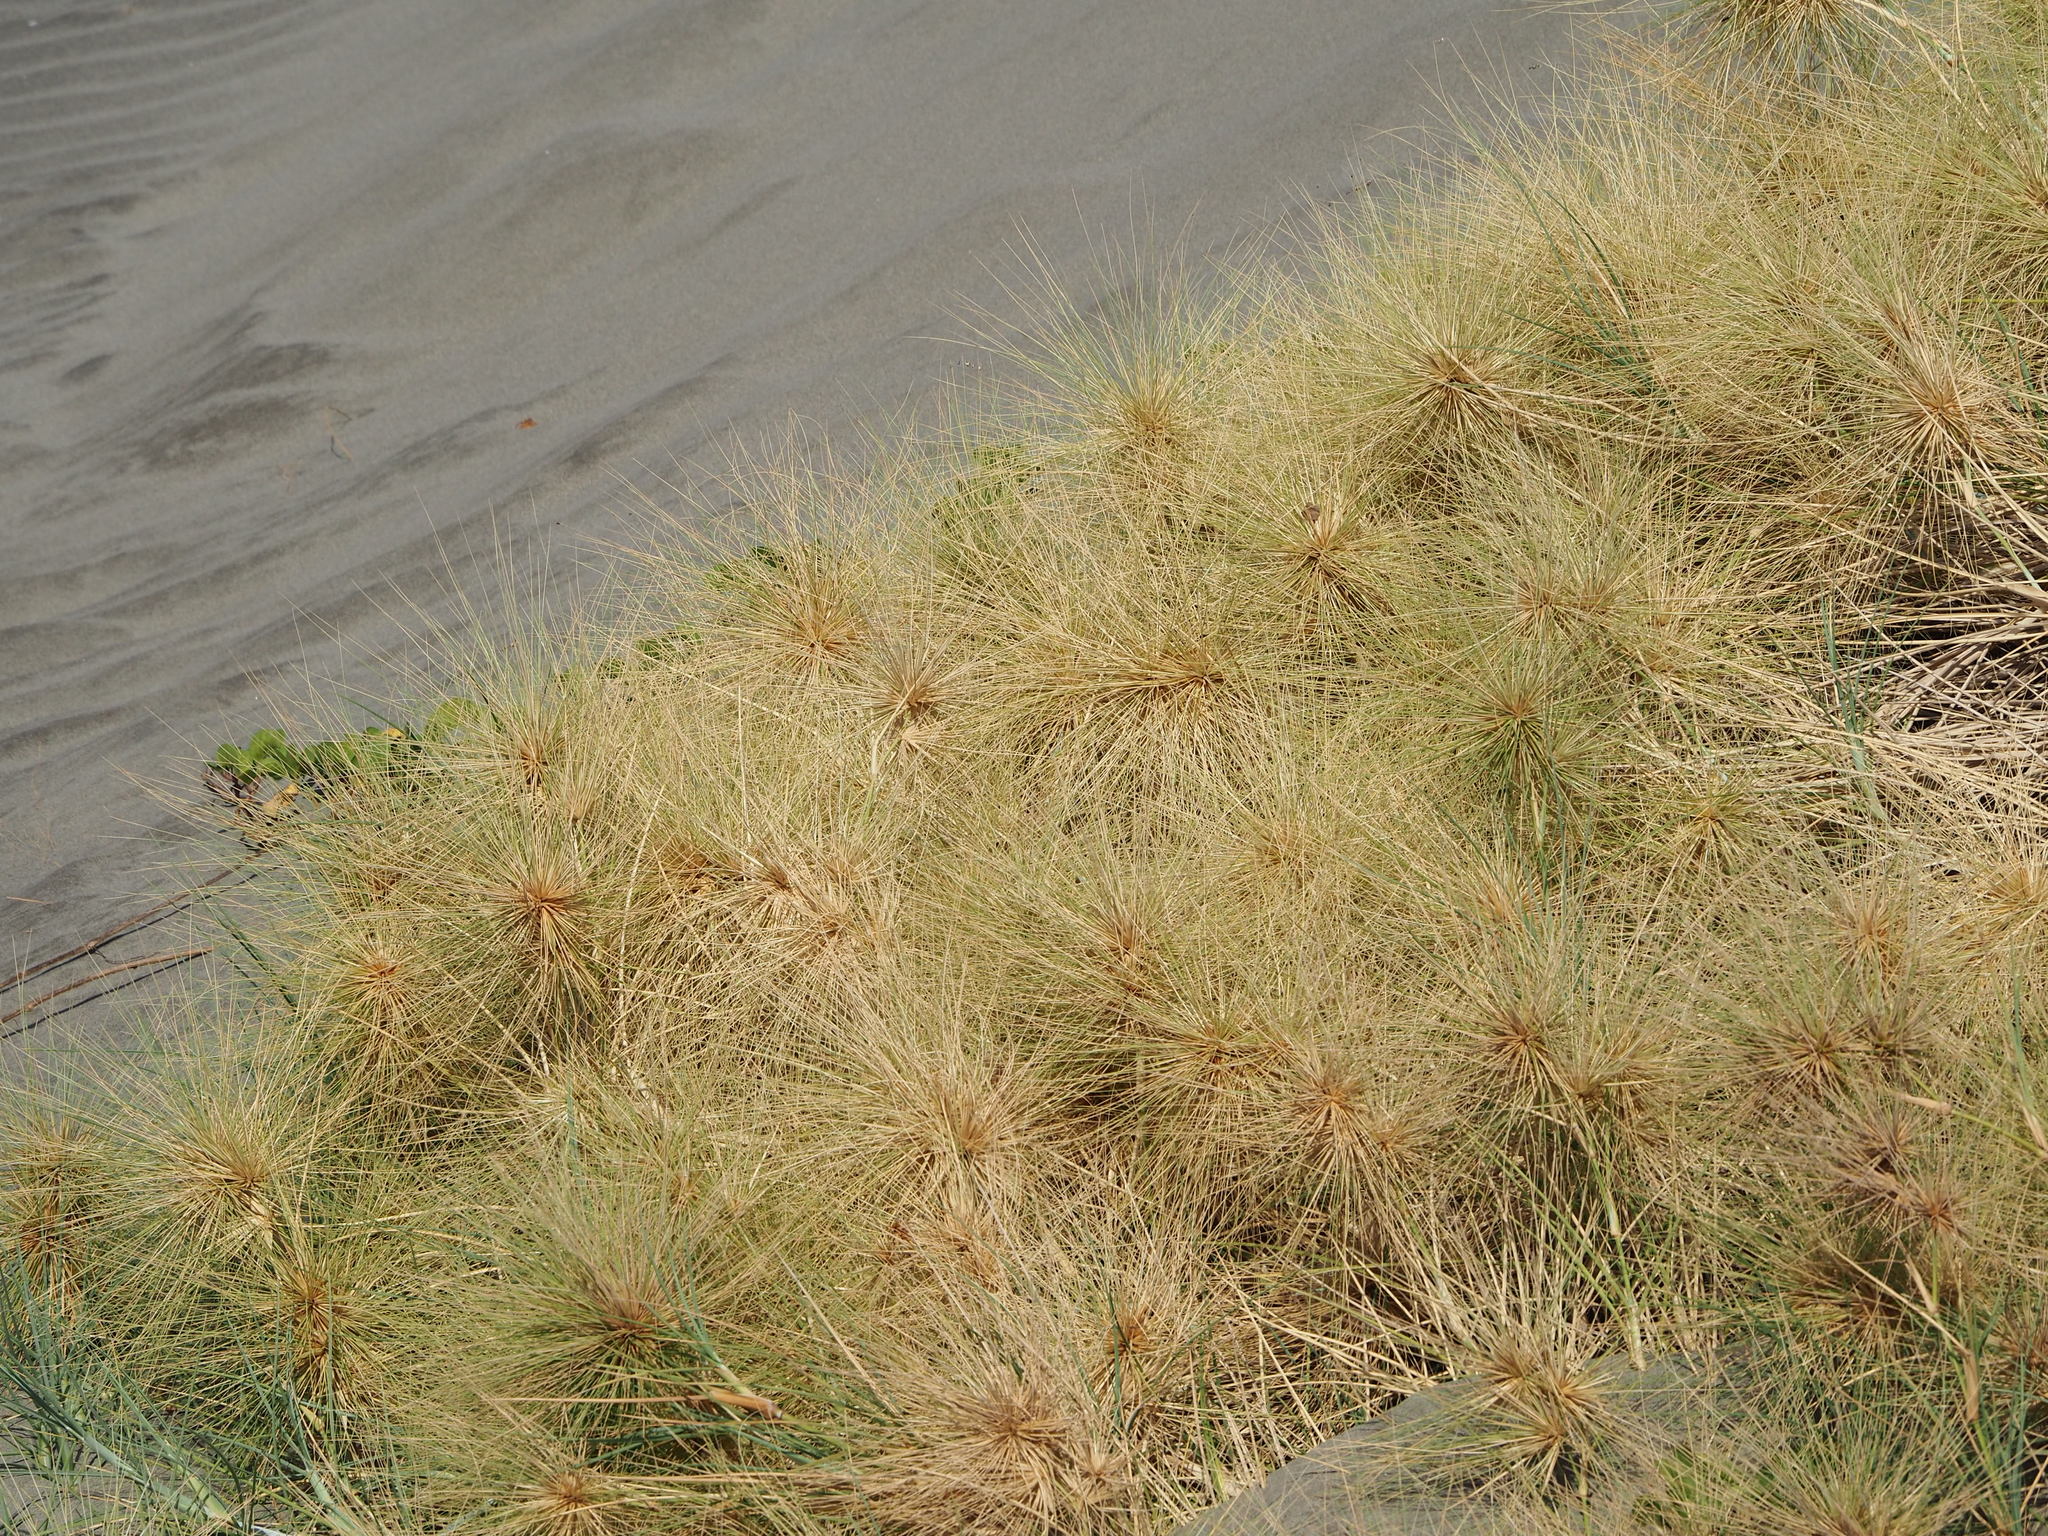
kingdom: Plantae
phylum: Tracheophyta
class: Liliopsida
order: Poales
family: Poaceae
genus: Spinifex
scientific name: Spinifex littoreus
